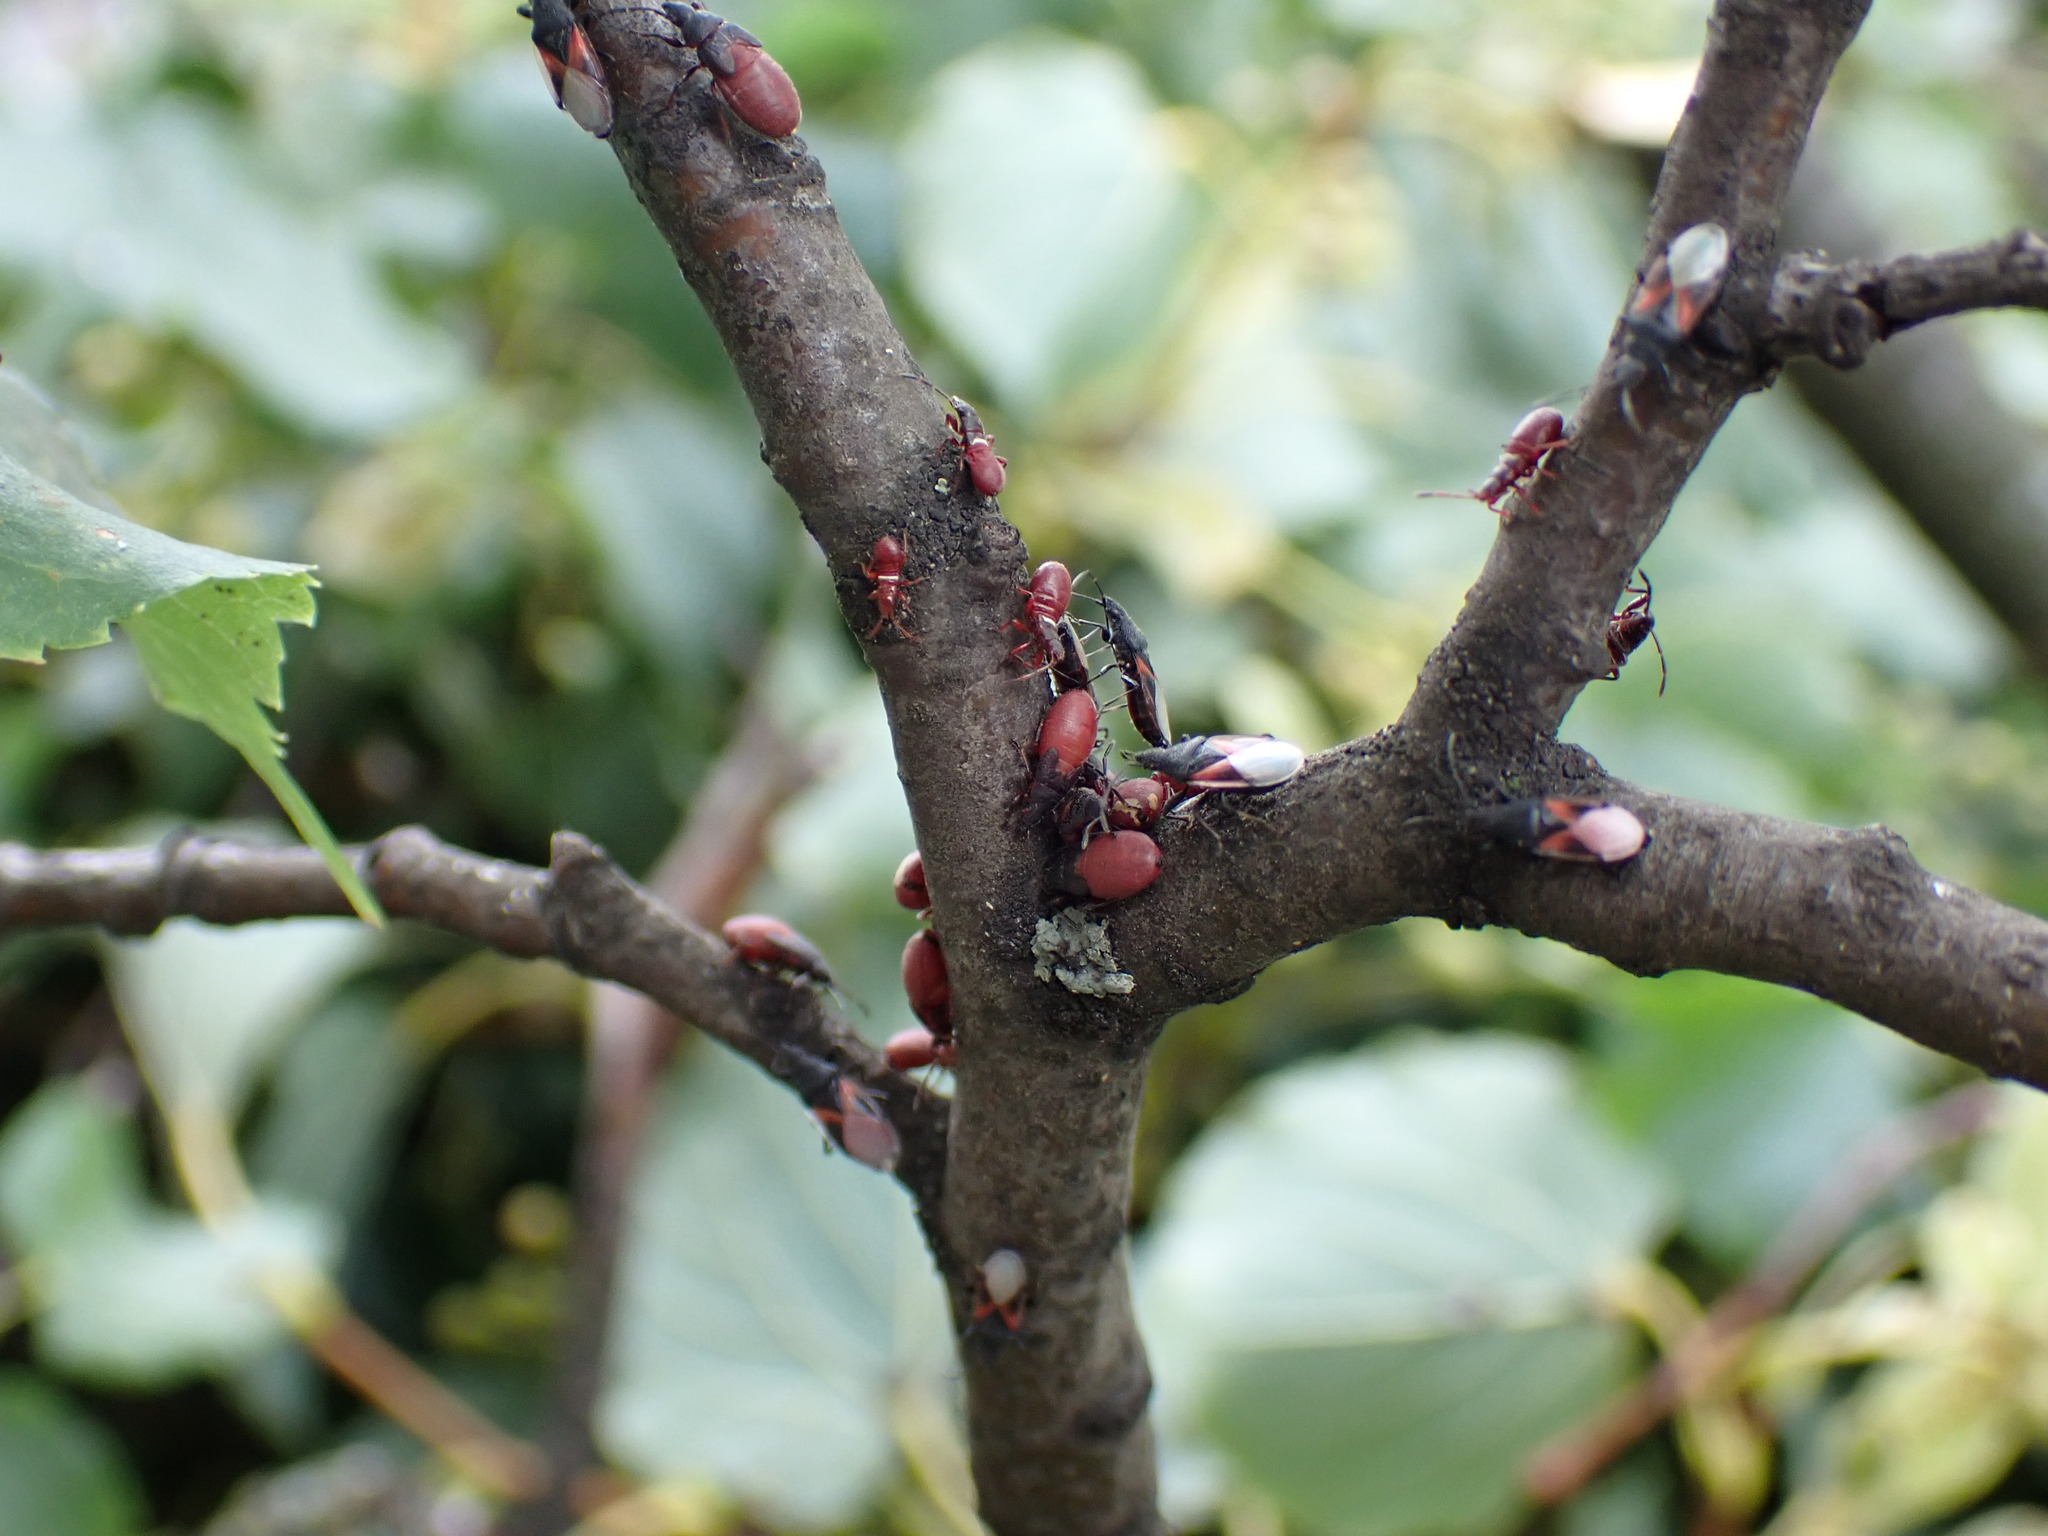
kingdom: Animalia
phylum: Arthropoda
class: Insecta
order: Hemiptera
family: Oxycarenidae
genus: Oxycarenus
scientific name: Oxycarenus lavaterae
